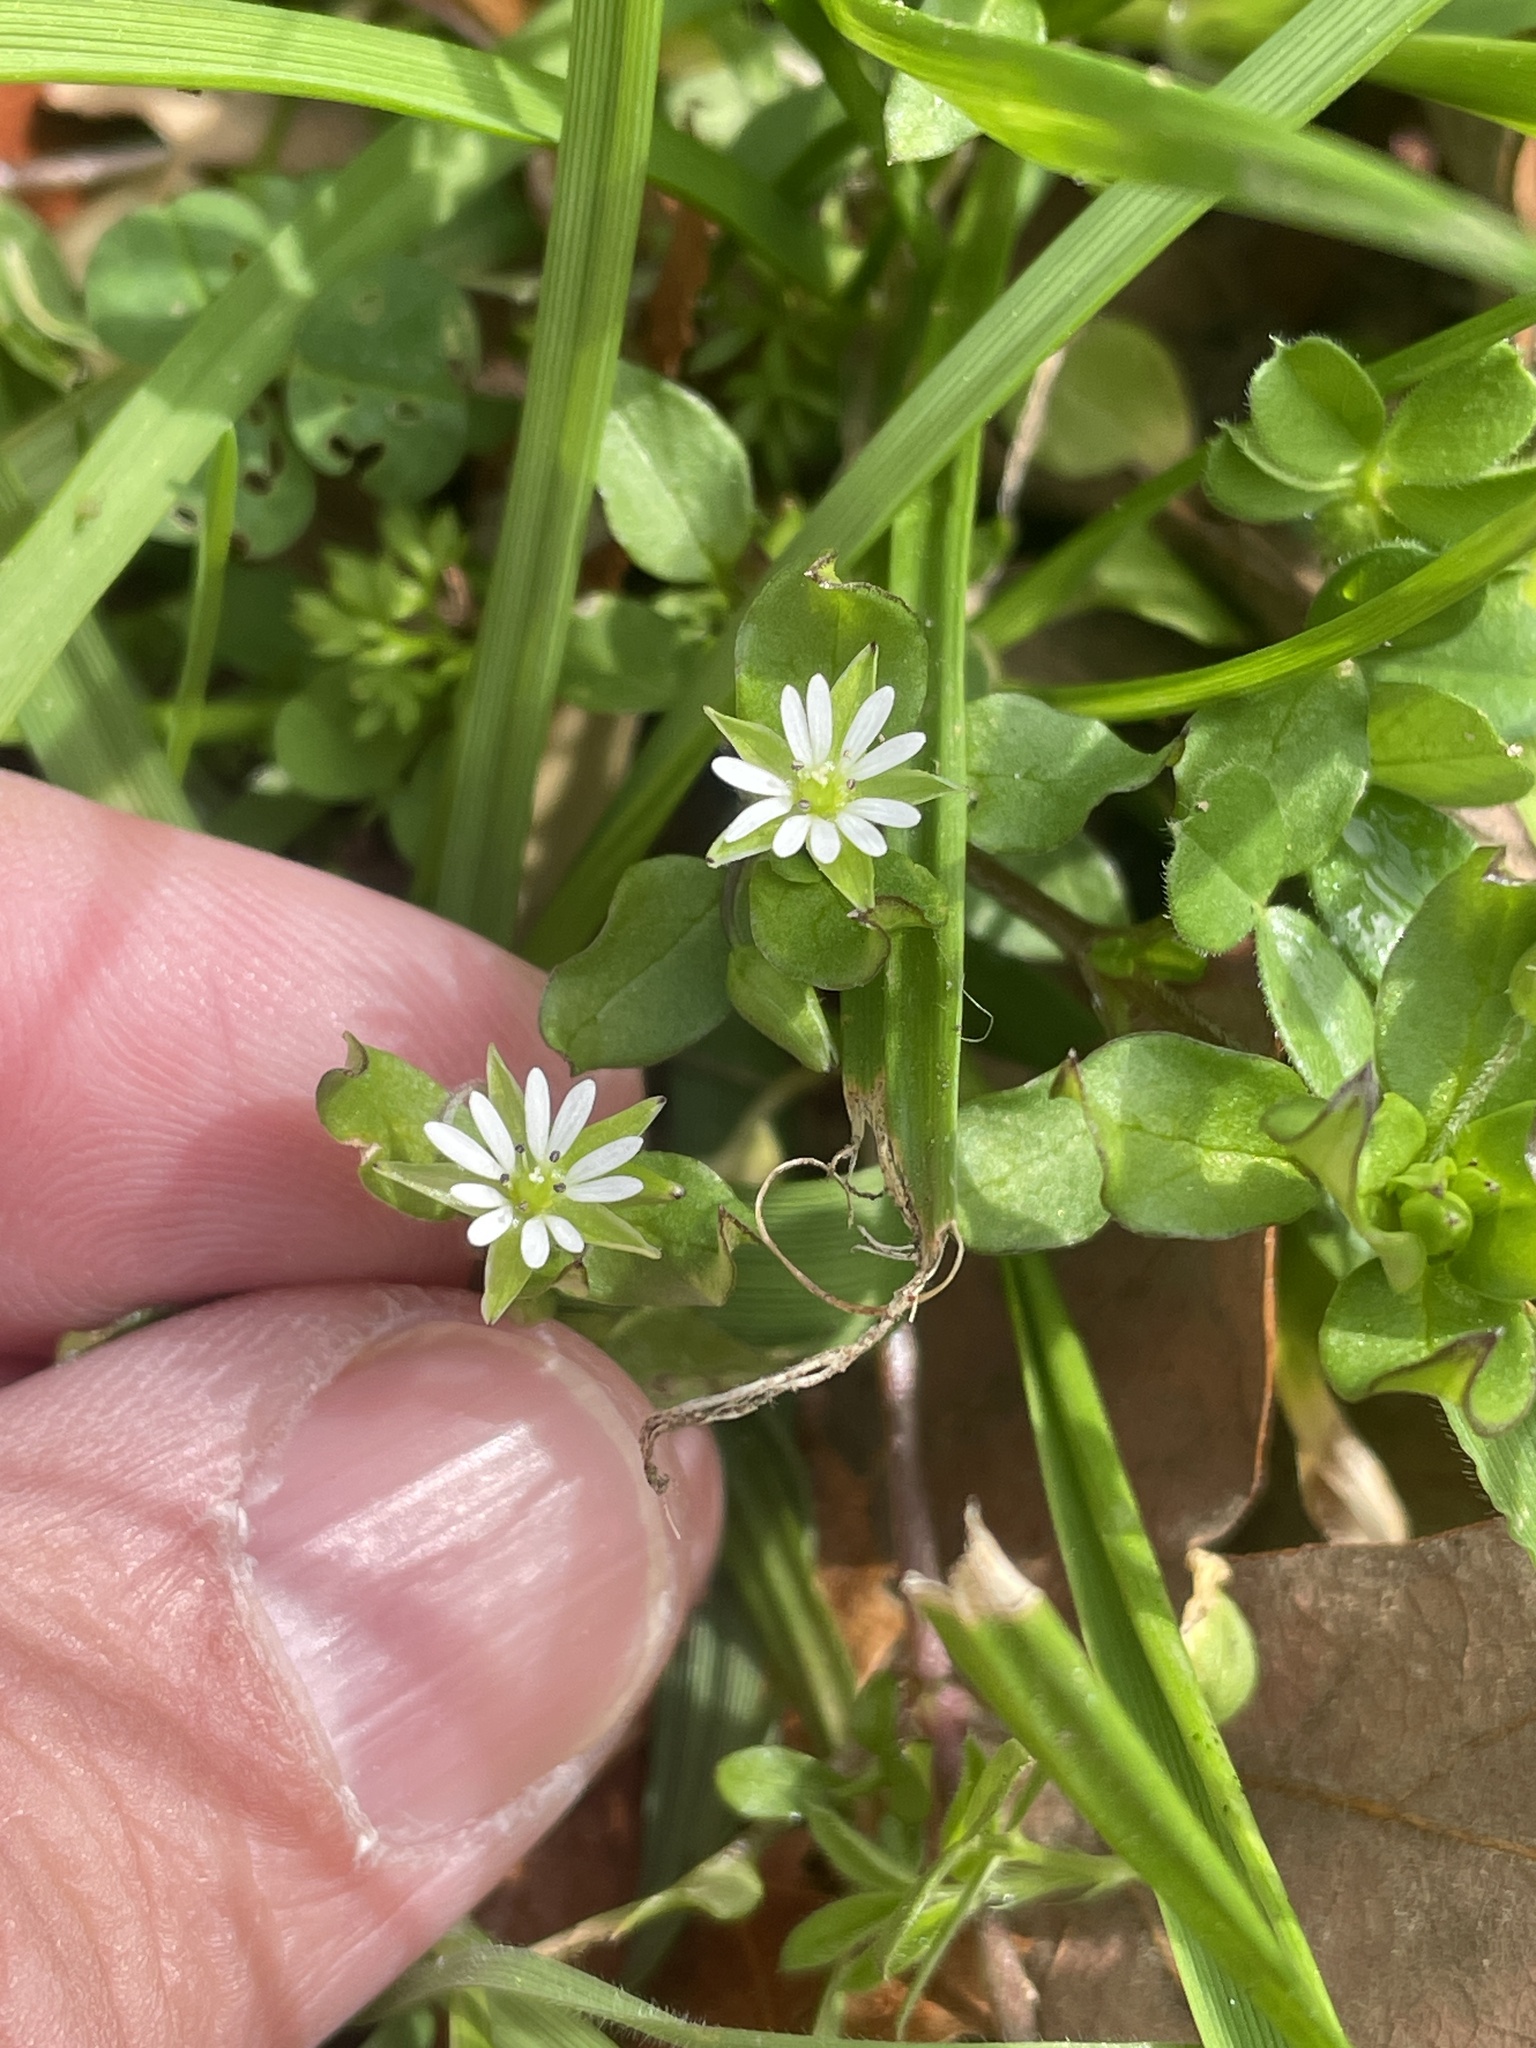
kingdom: Plantae
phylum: Tracheophyta
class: Magnoliopsida
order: Caryophyllales
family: Caryophyllaceae
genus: Stellaria
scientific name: Stellaria media
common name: Common chickweed
